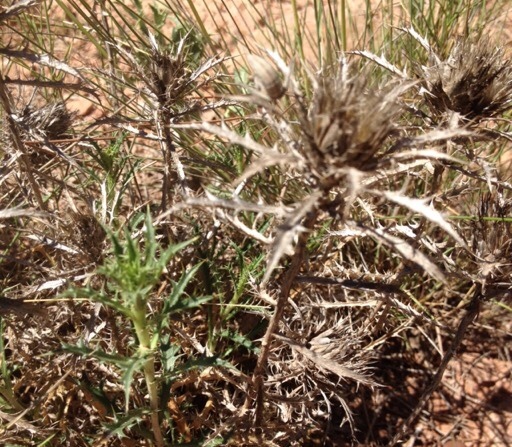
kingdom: Plantae
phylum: Tracheophyta
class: Magnoliopsida
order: Asterales
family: Asteraceae
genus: Atractylis
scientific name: Atractylis humilis
